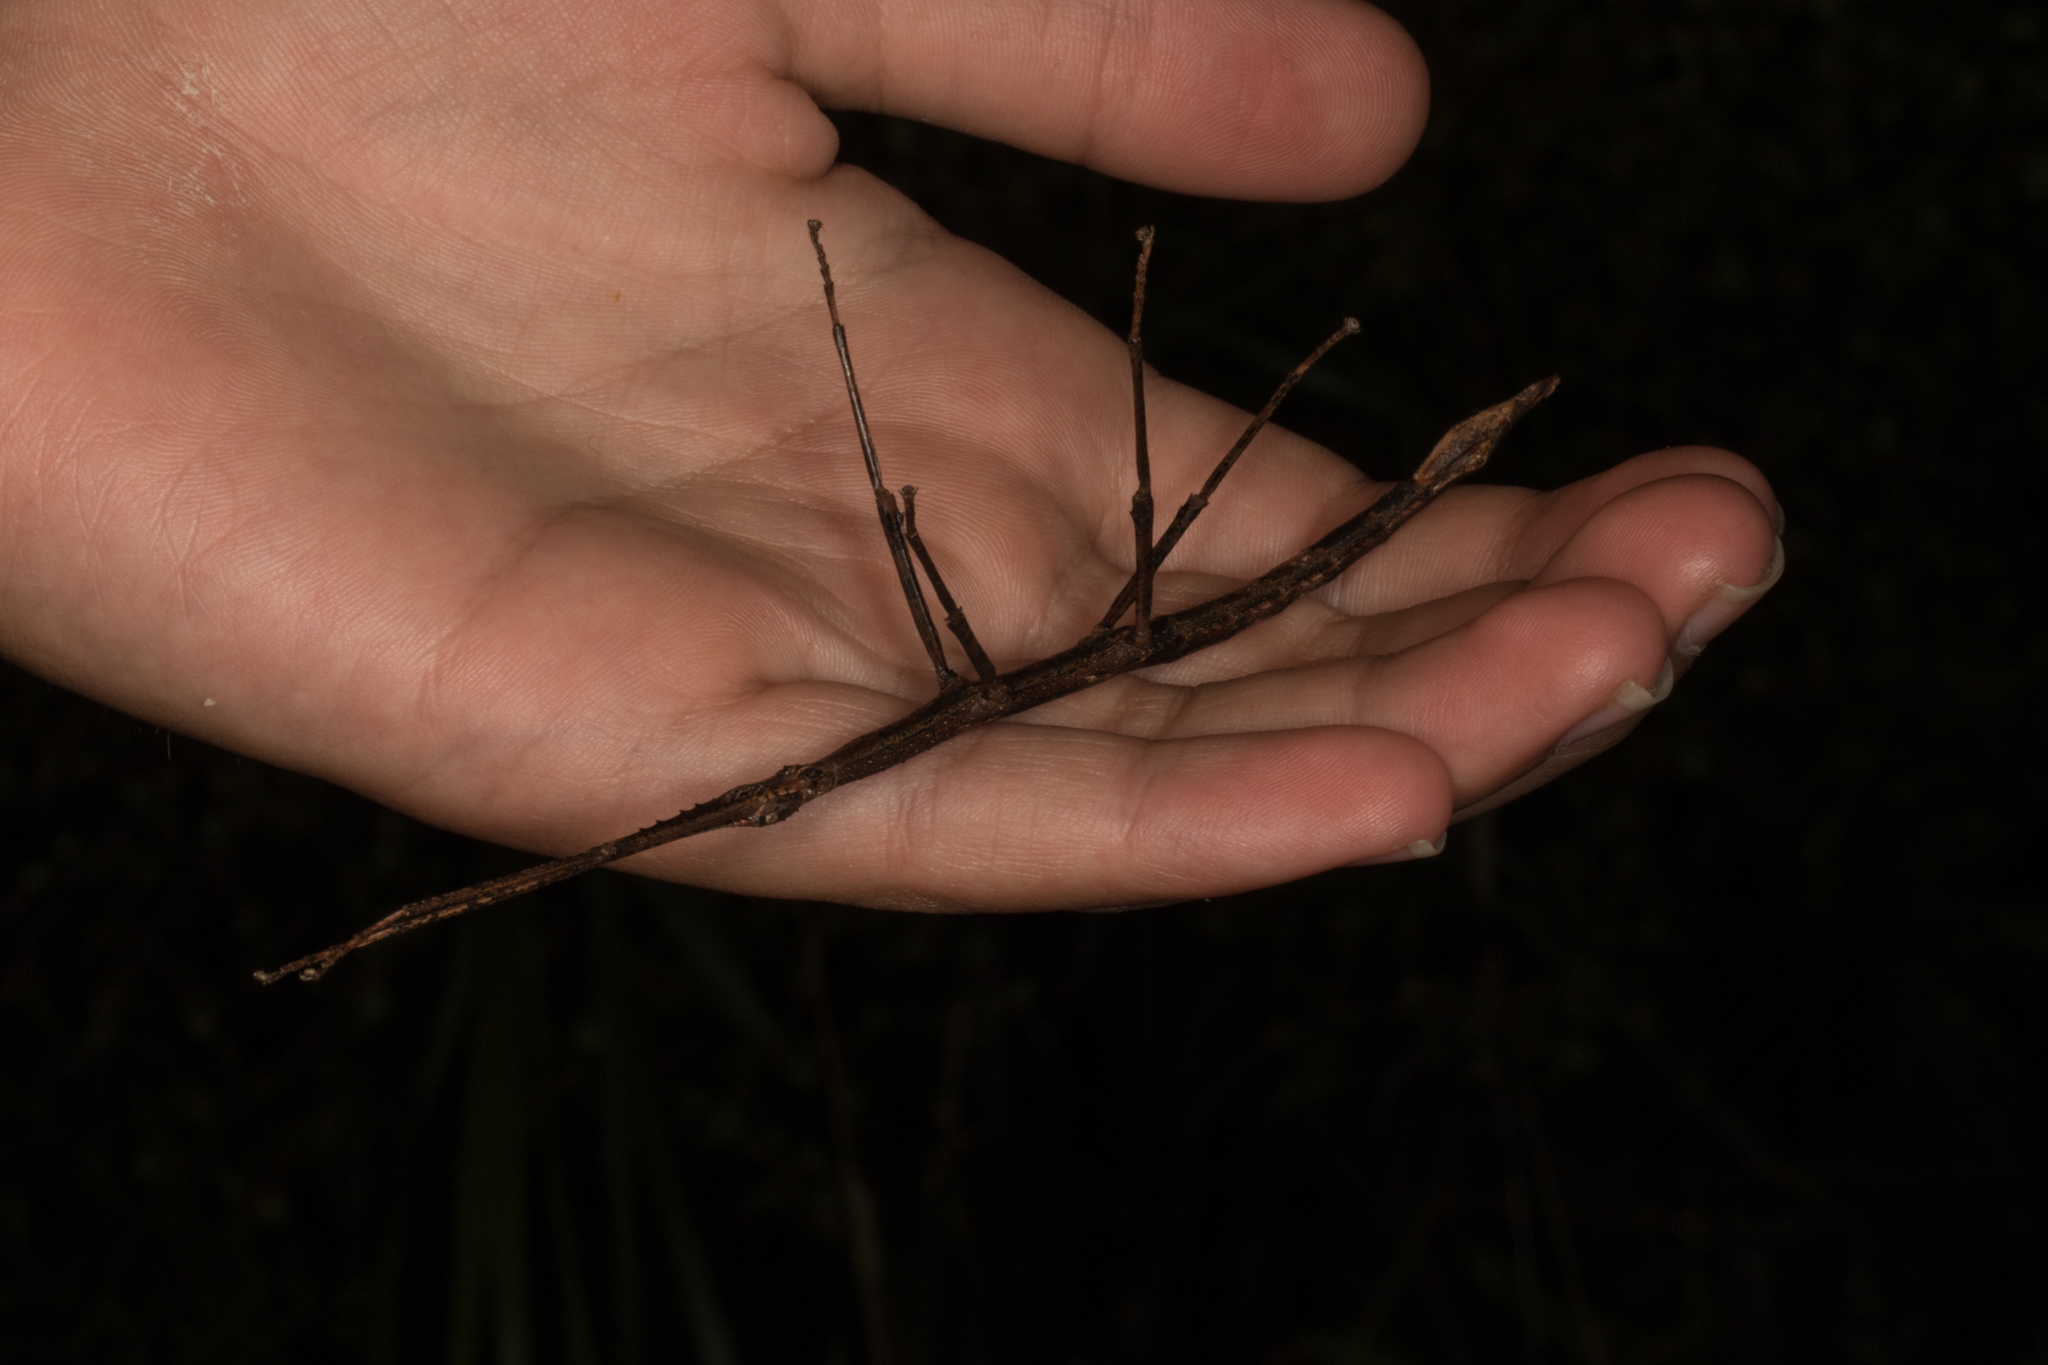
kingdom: Animalia
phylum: Arthropoda
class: Insecta
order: Phasmida
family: Phasmatidae
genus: Clitarchus
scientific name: Clitarchus hookeri
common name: Smooth stick insect
